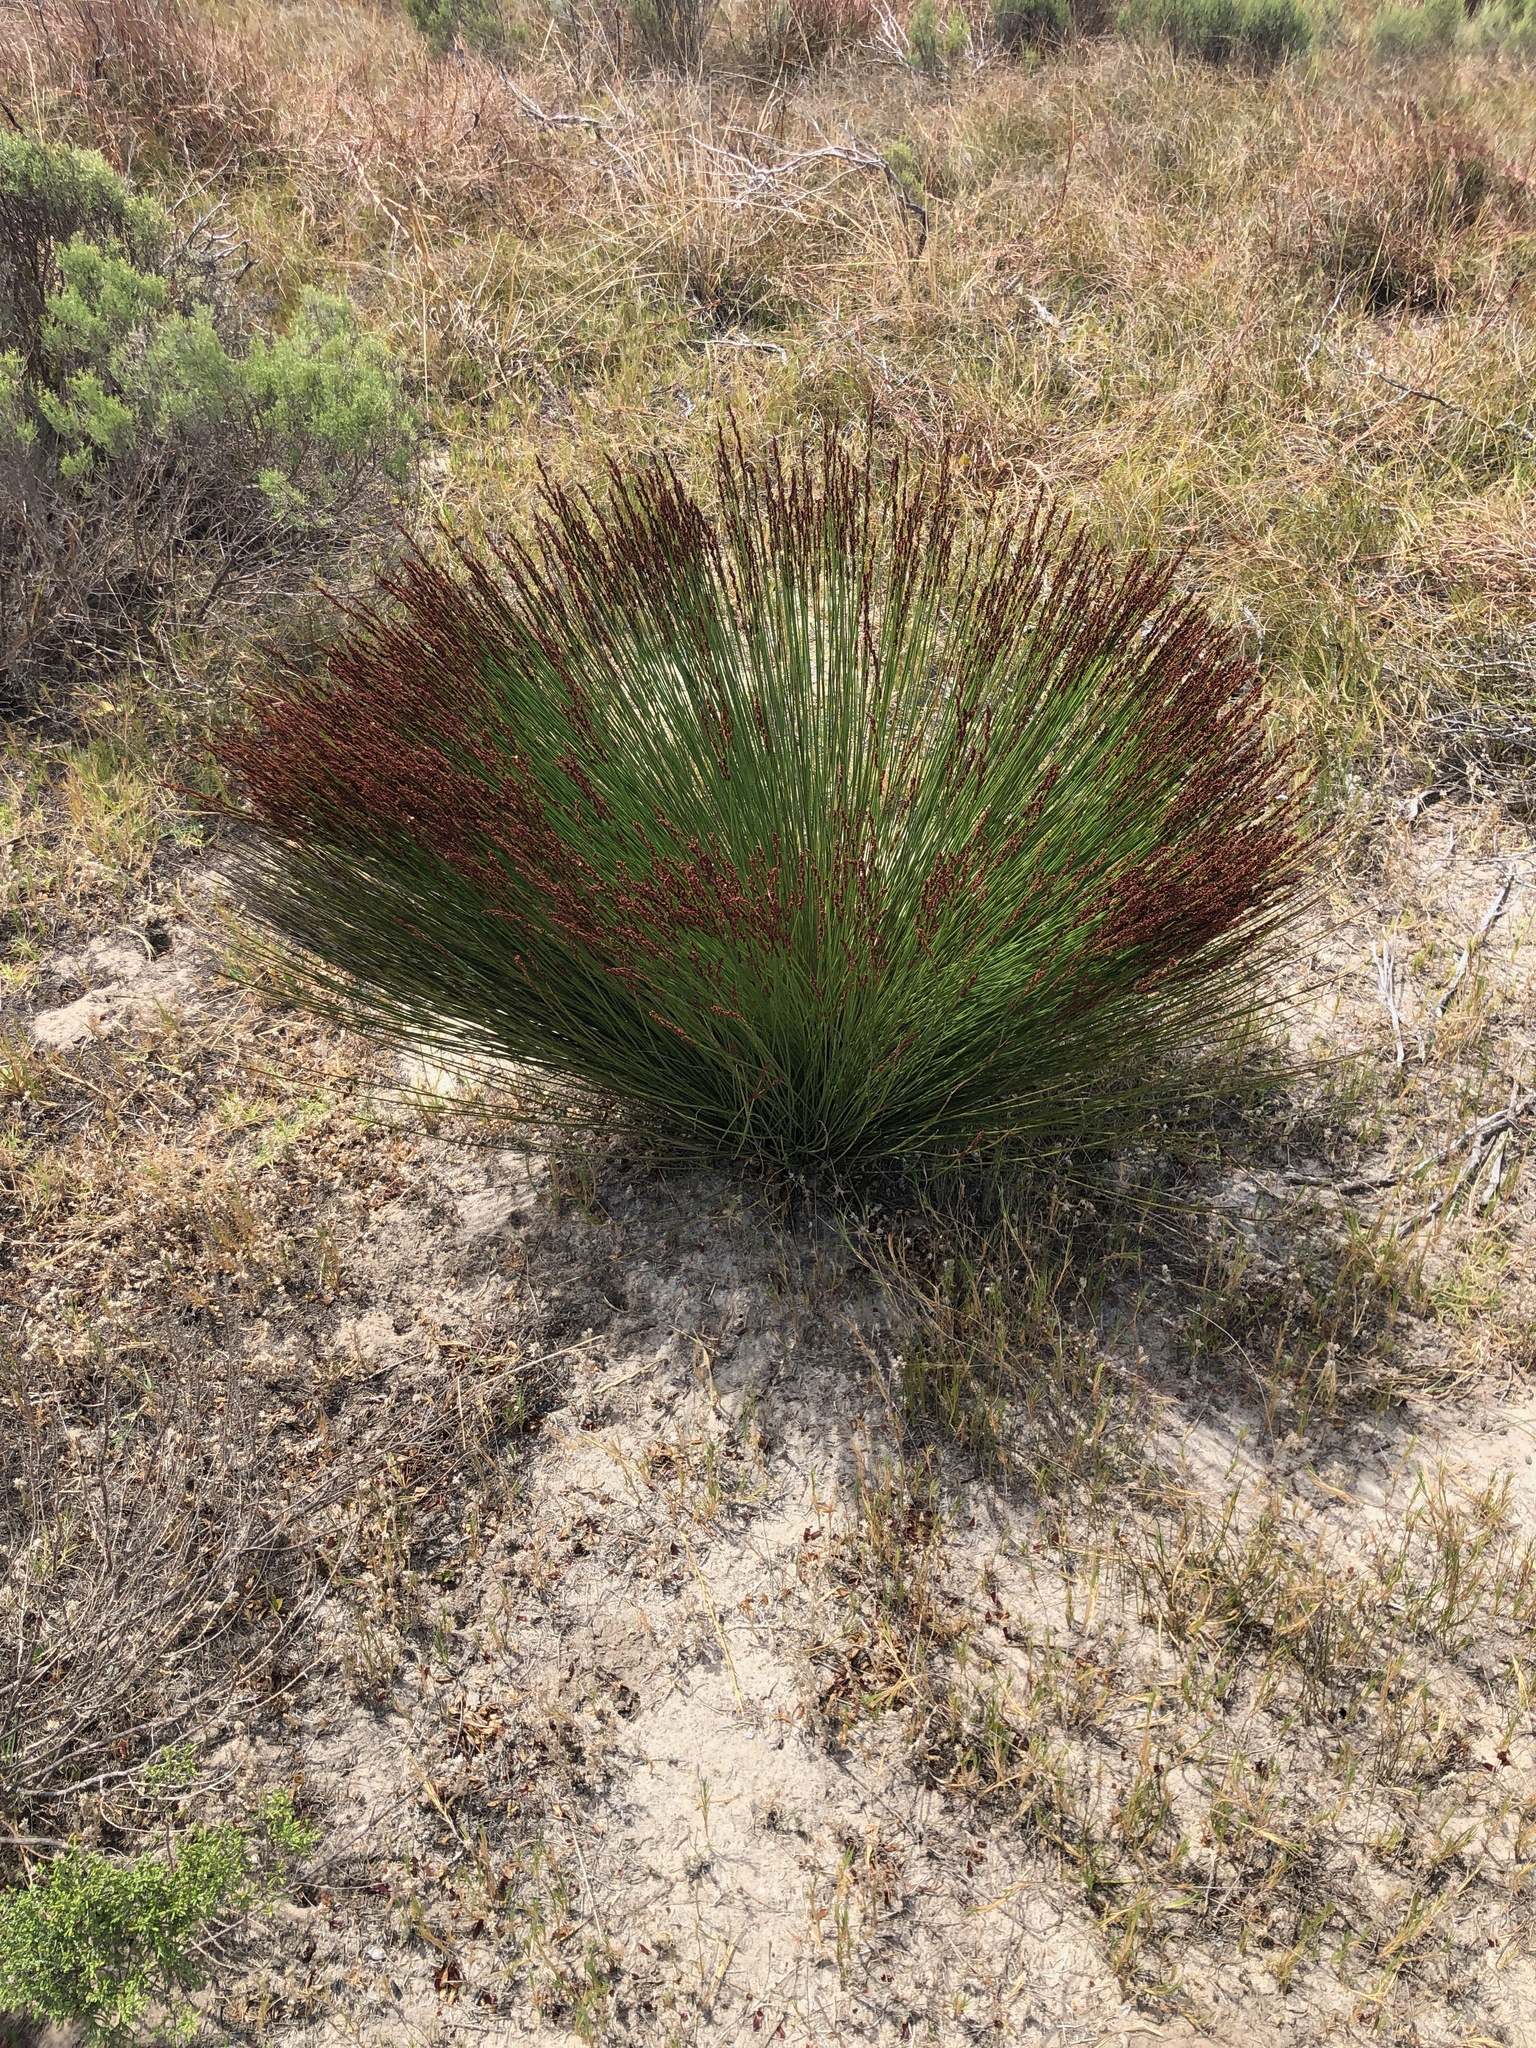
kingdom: Plantae
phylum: Tracheophyta
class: Liliopsida
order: Poales
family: Restionaceae
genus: Elegia
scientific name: Elegia tectorum
